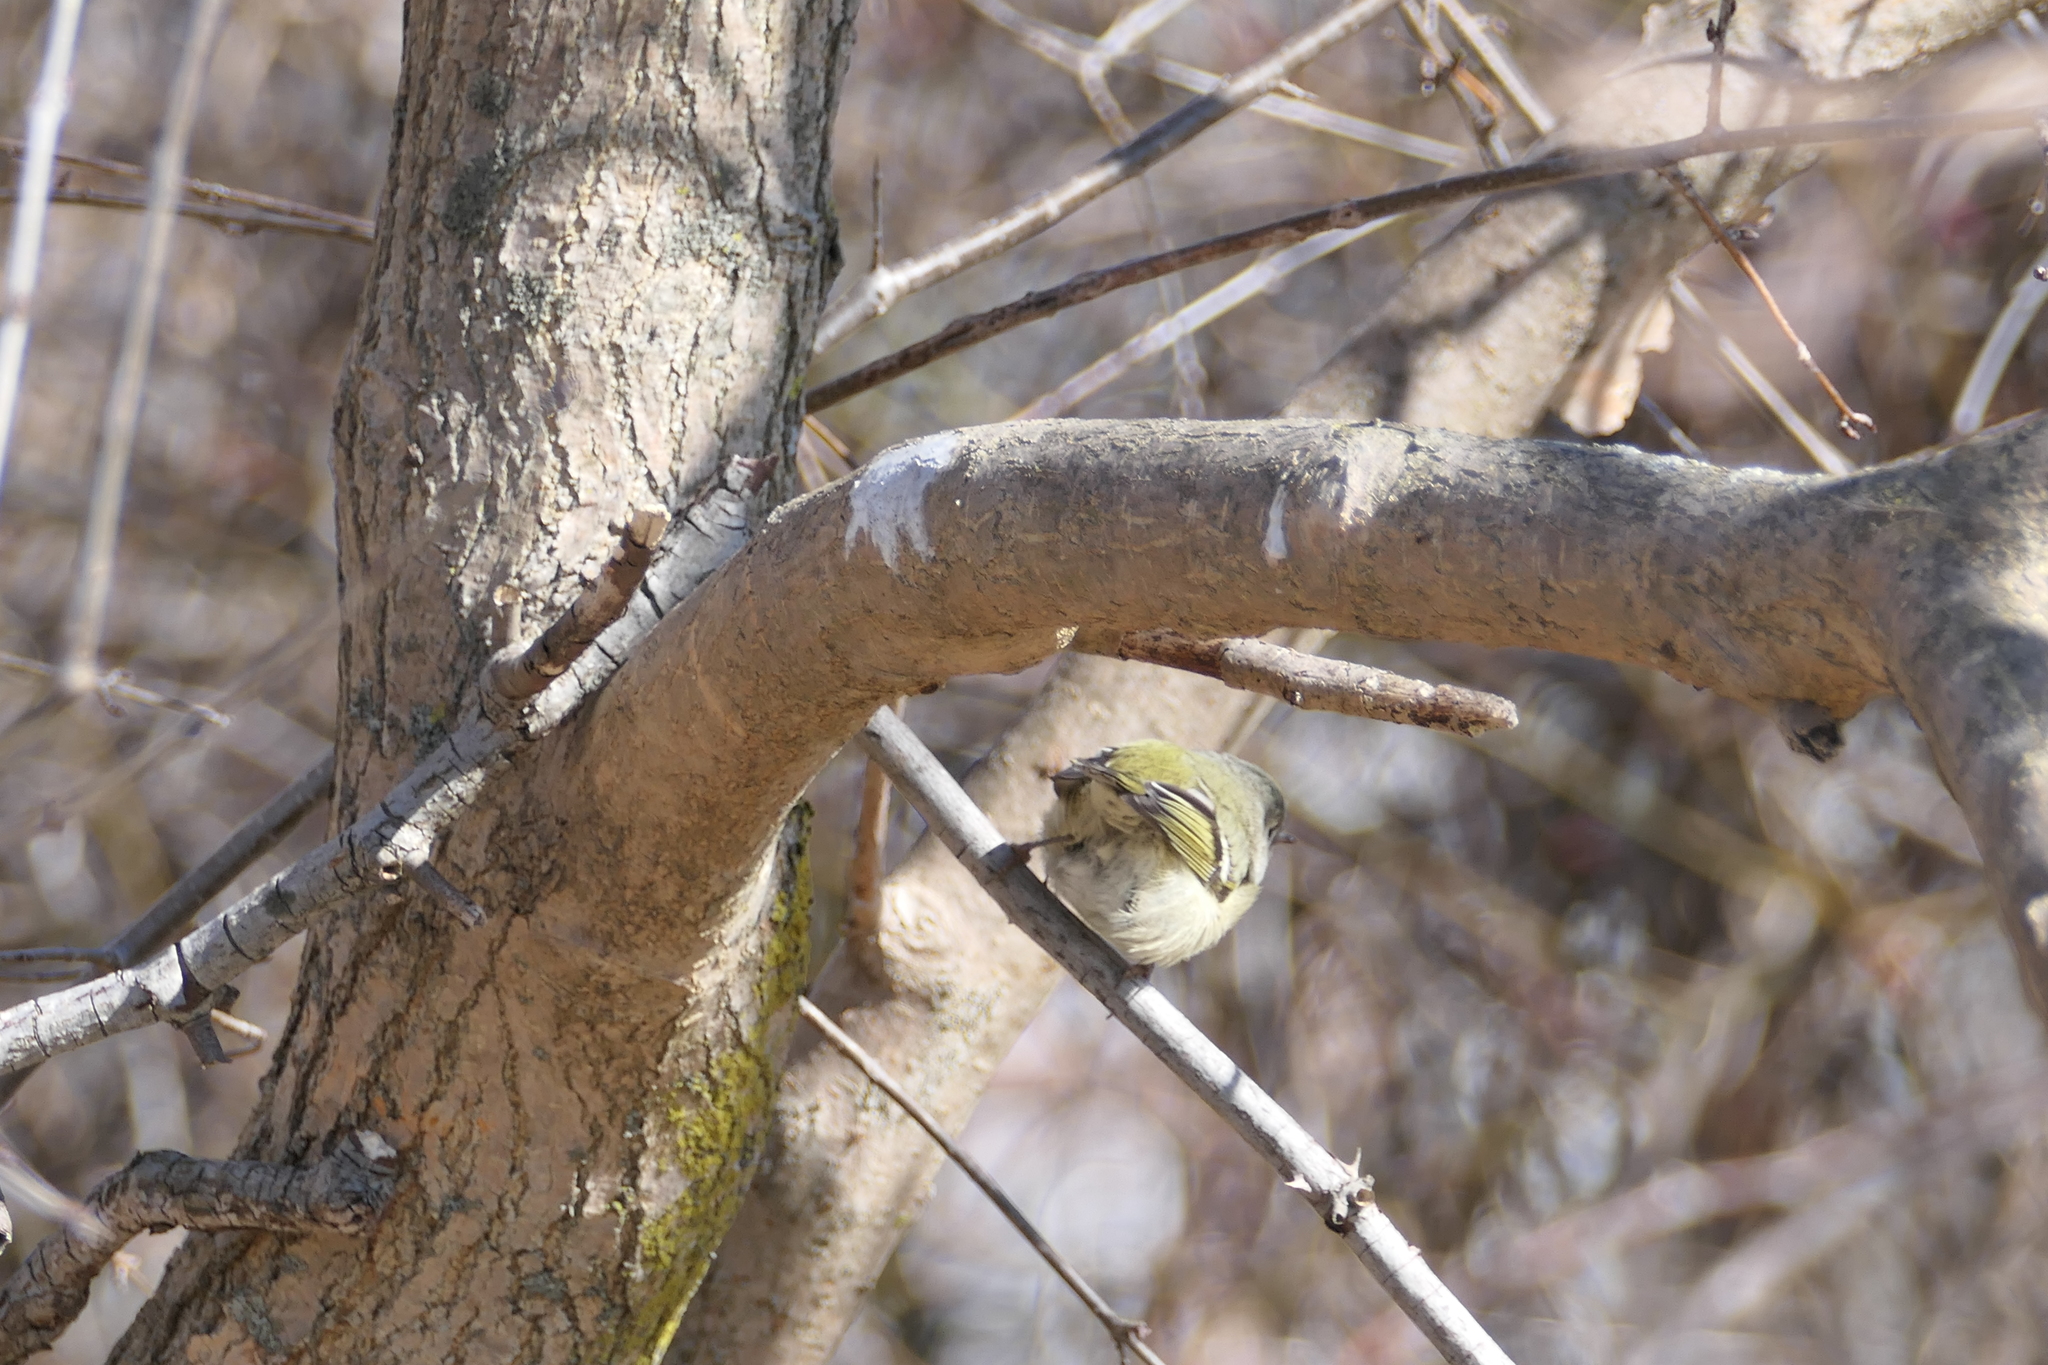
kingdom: Animalia
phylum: Chordata
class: Aves
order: Passeriformes
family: Regulidae
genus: Regulus
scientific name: Regulus calendula
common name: Ruby-crowned kinglet
